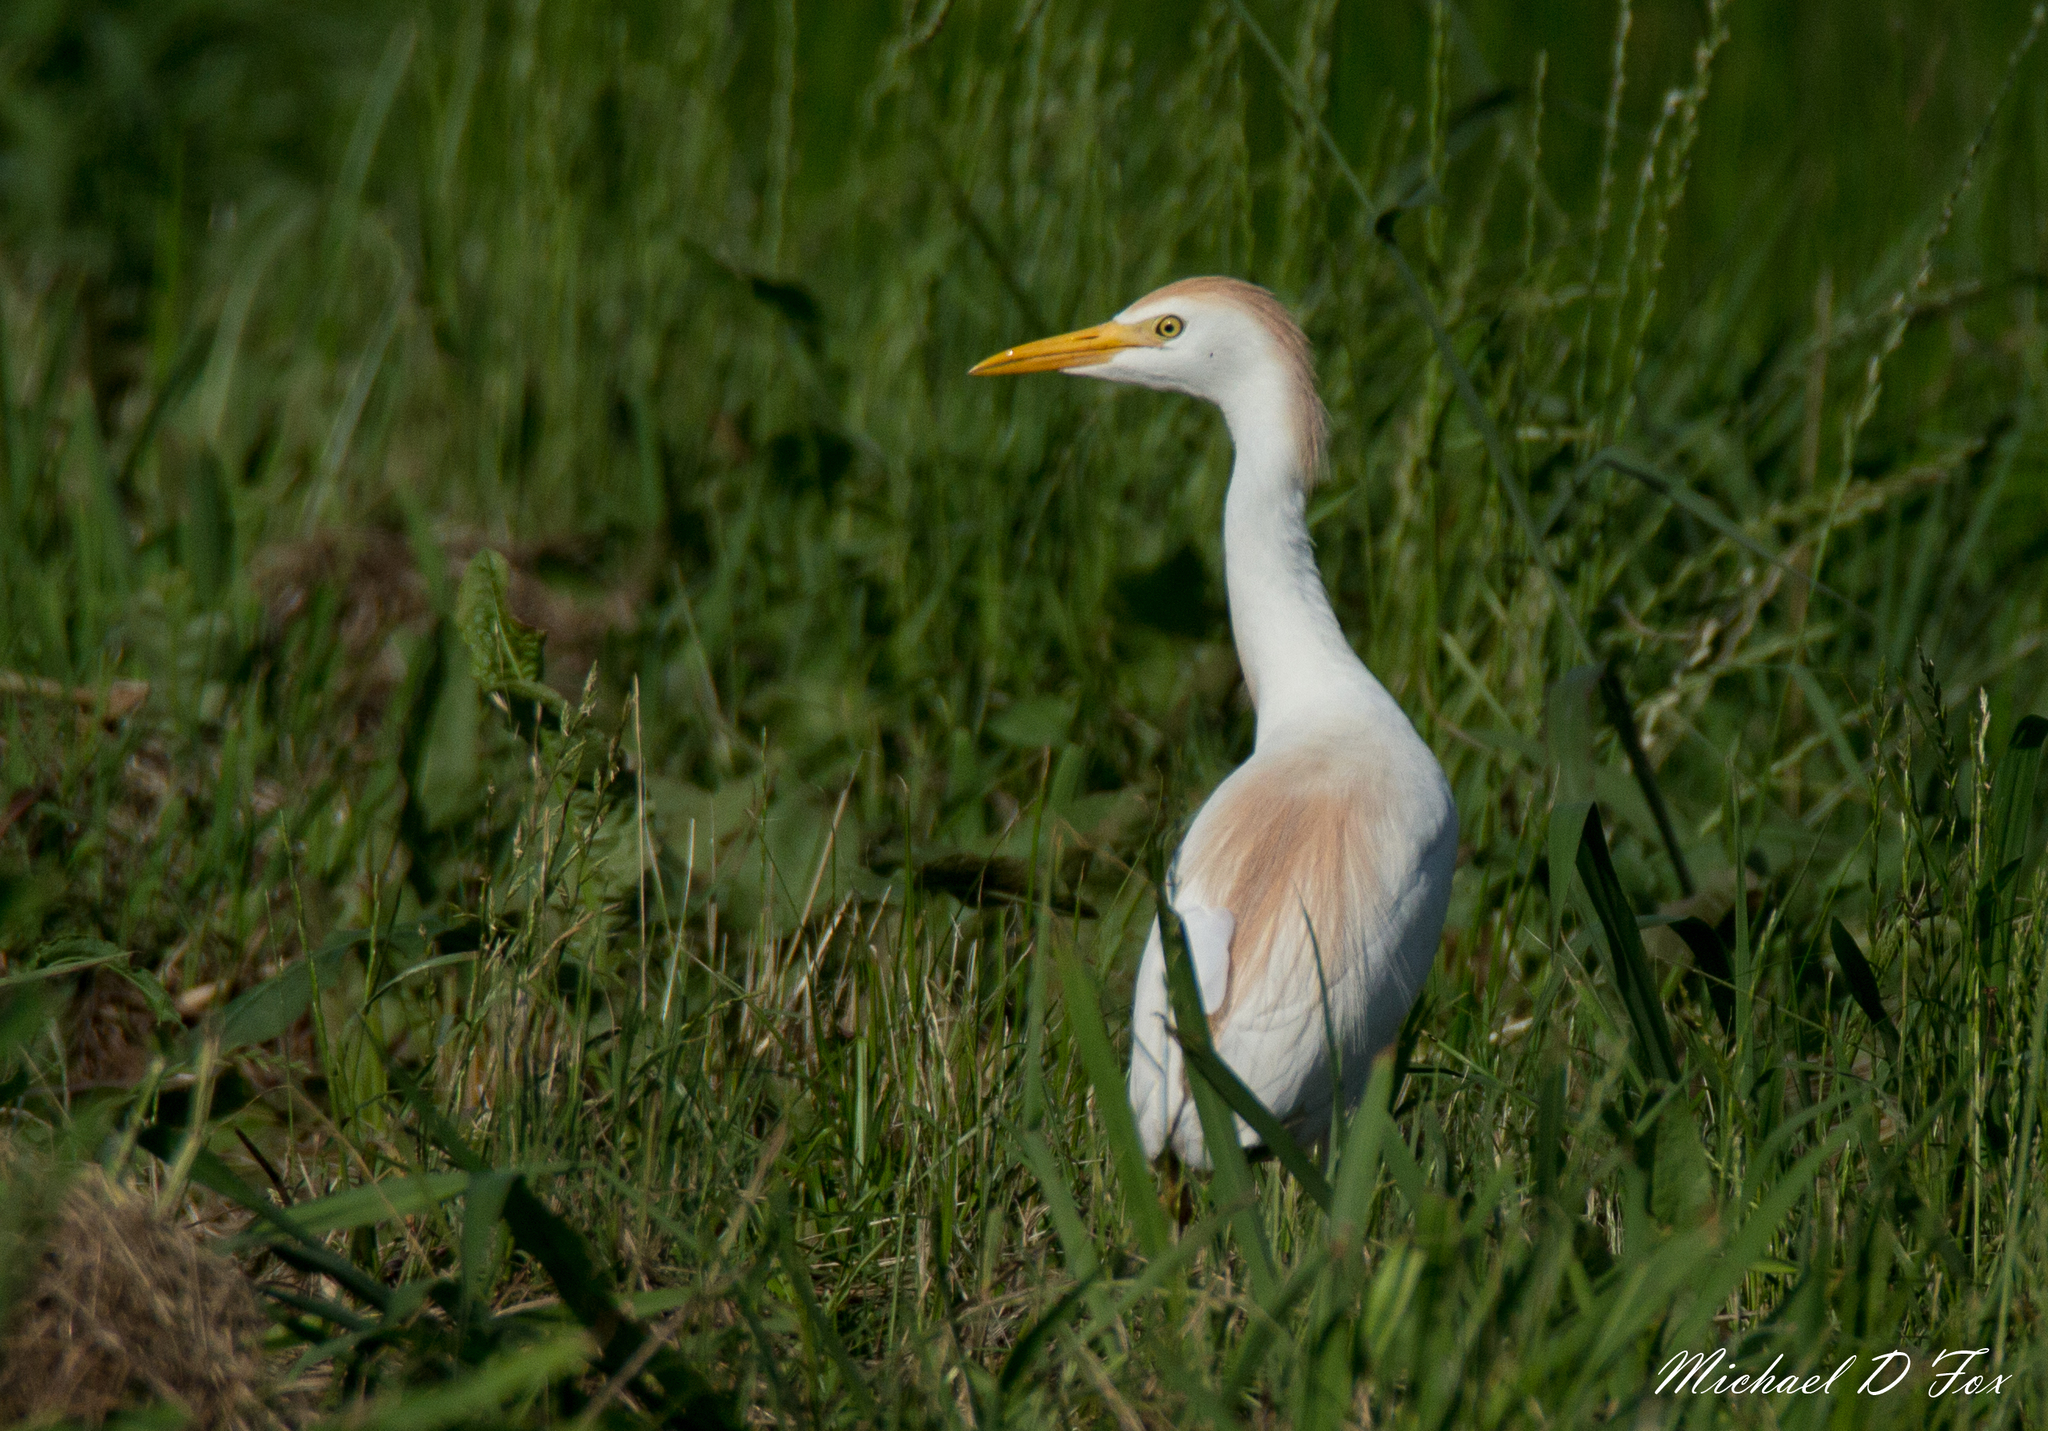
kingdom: Animalia
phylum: Chordata
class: Aves
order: Pelecaniformes
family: Ardeidae
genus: Bubulcus
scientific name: Bubulcus ibis
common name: Cattle egret
